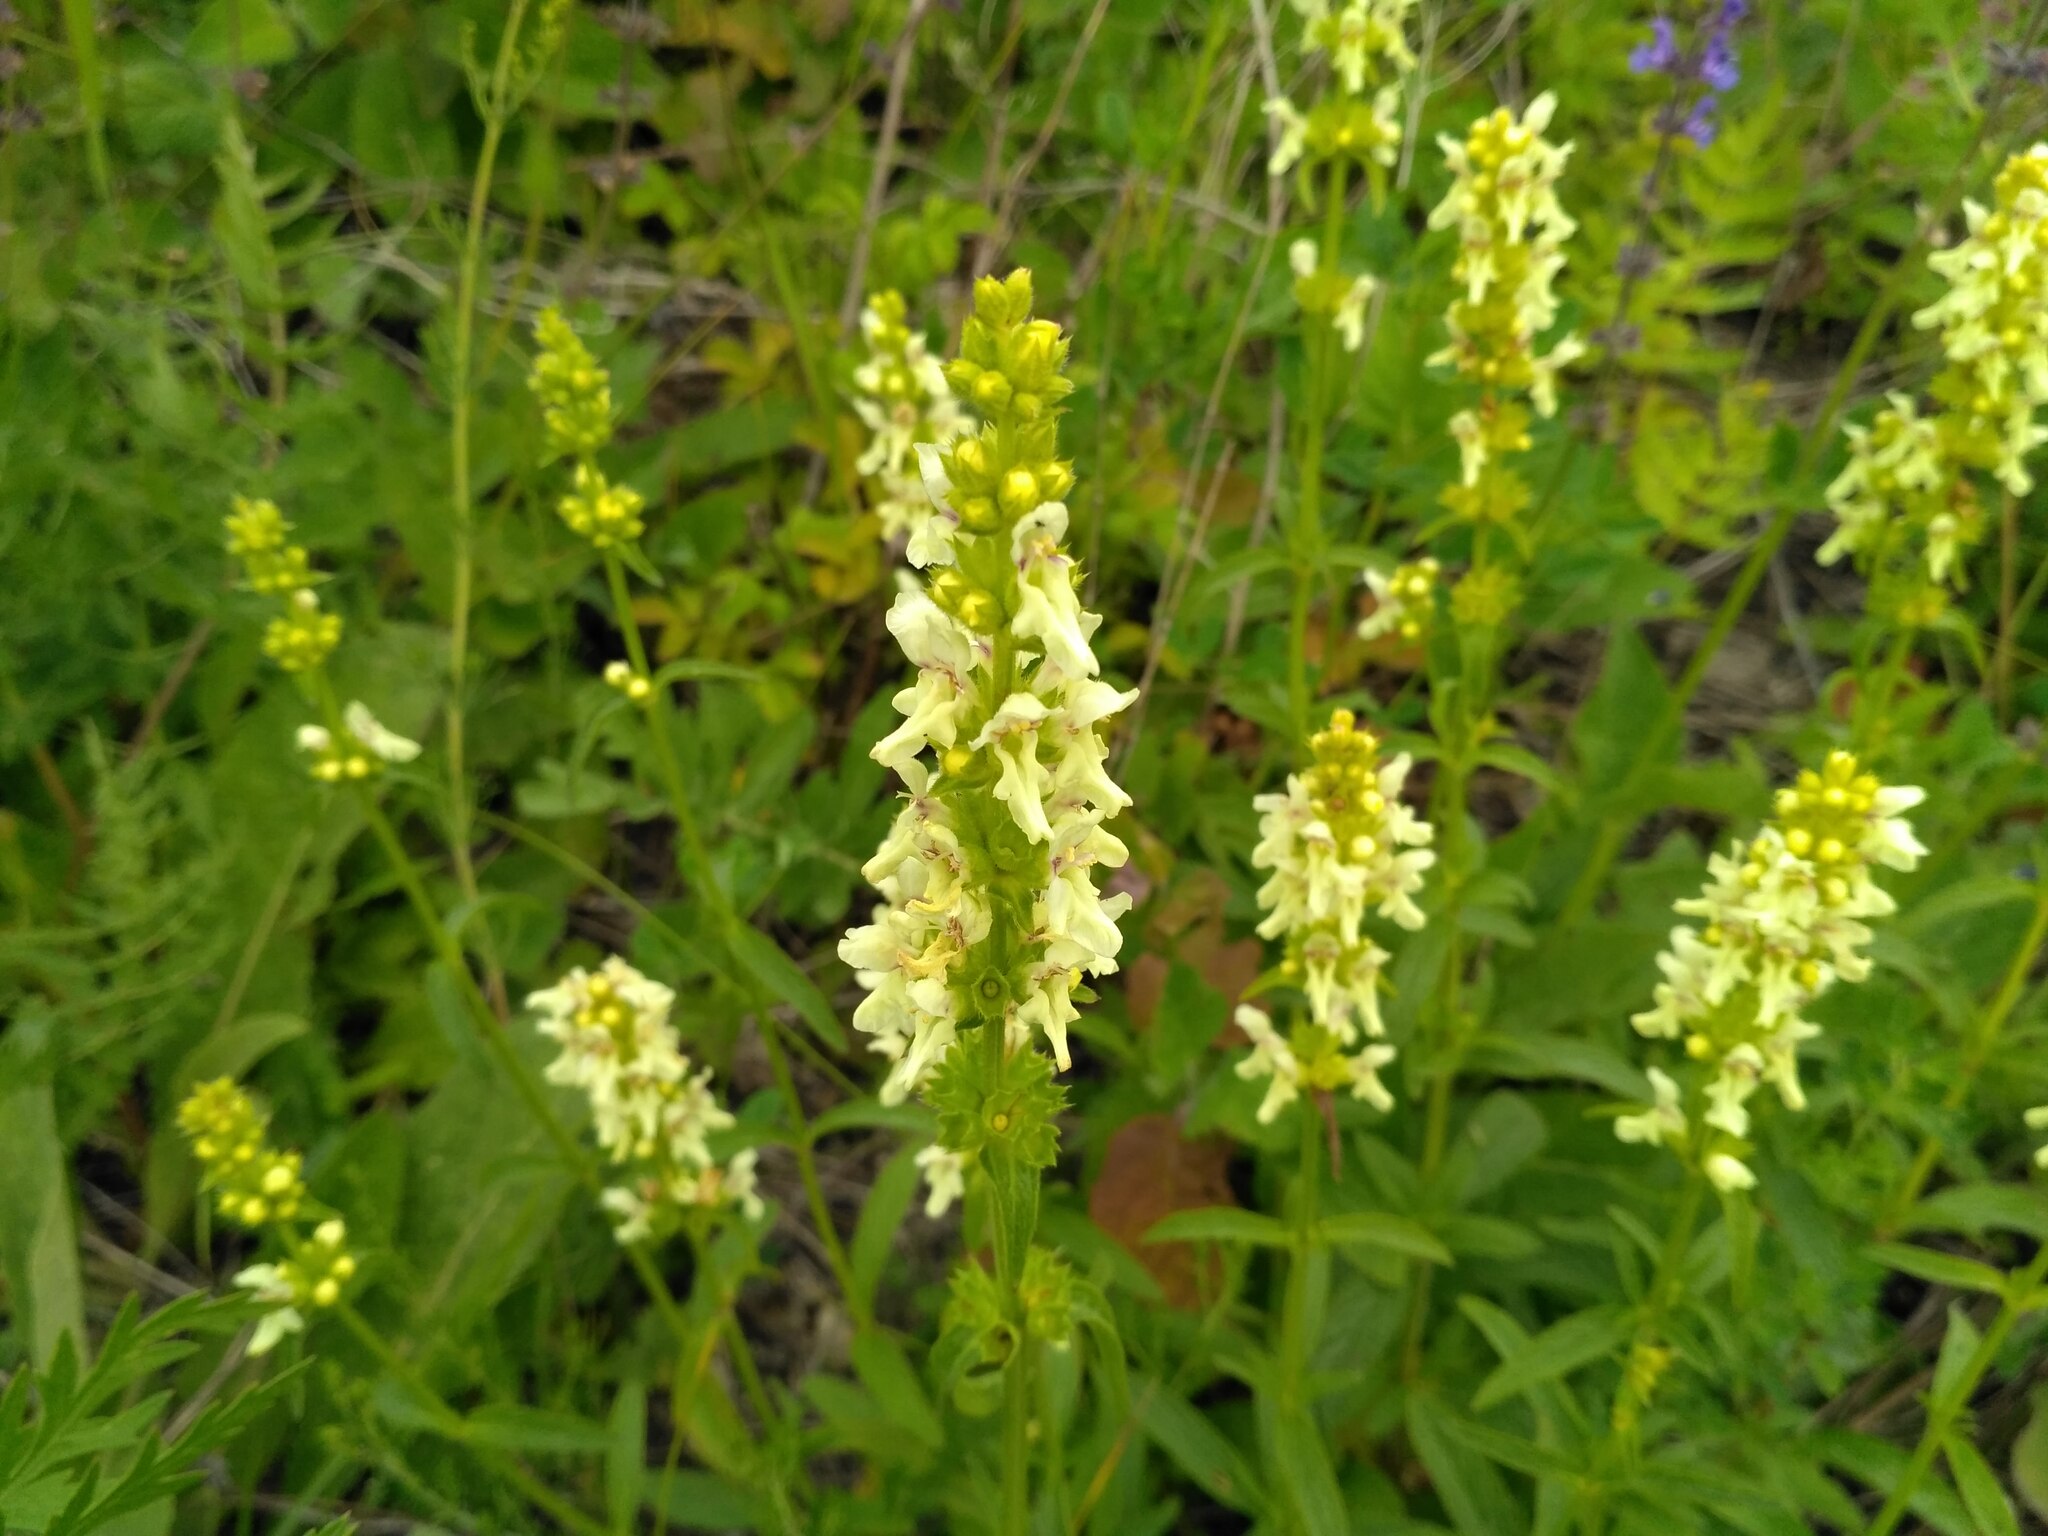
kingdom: Plantae
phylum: Tracheophyta
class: Magnoliopsida
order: Lamiales
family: Lamiaceae
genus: Stachys
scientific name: Stachys recta
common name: Perennial yellow-woundwort
